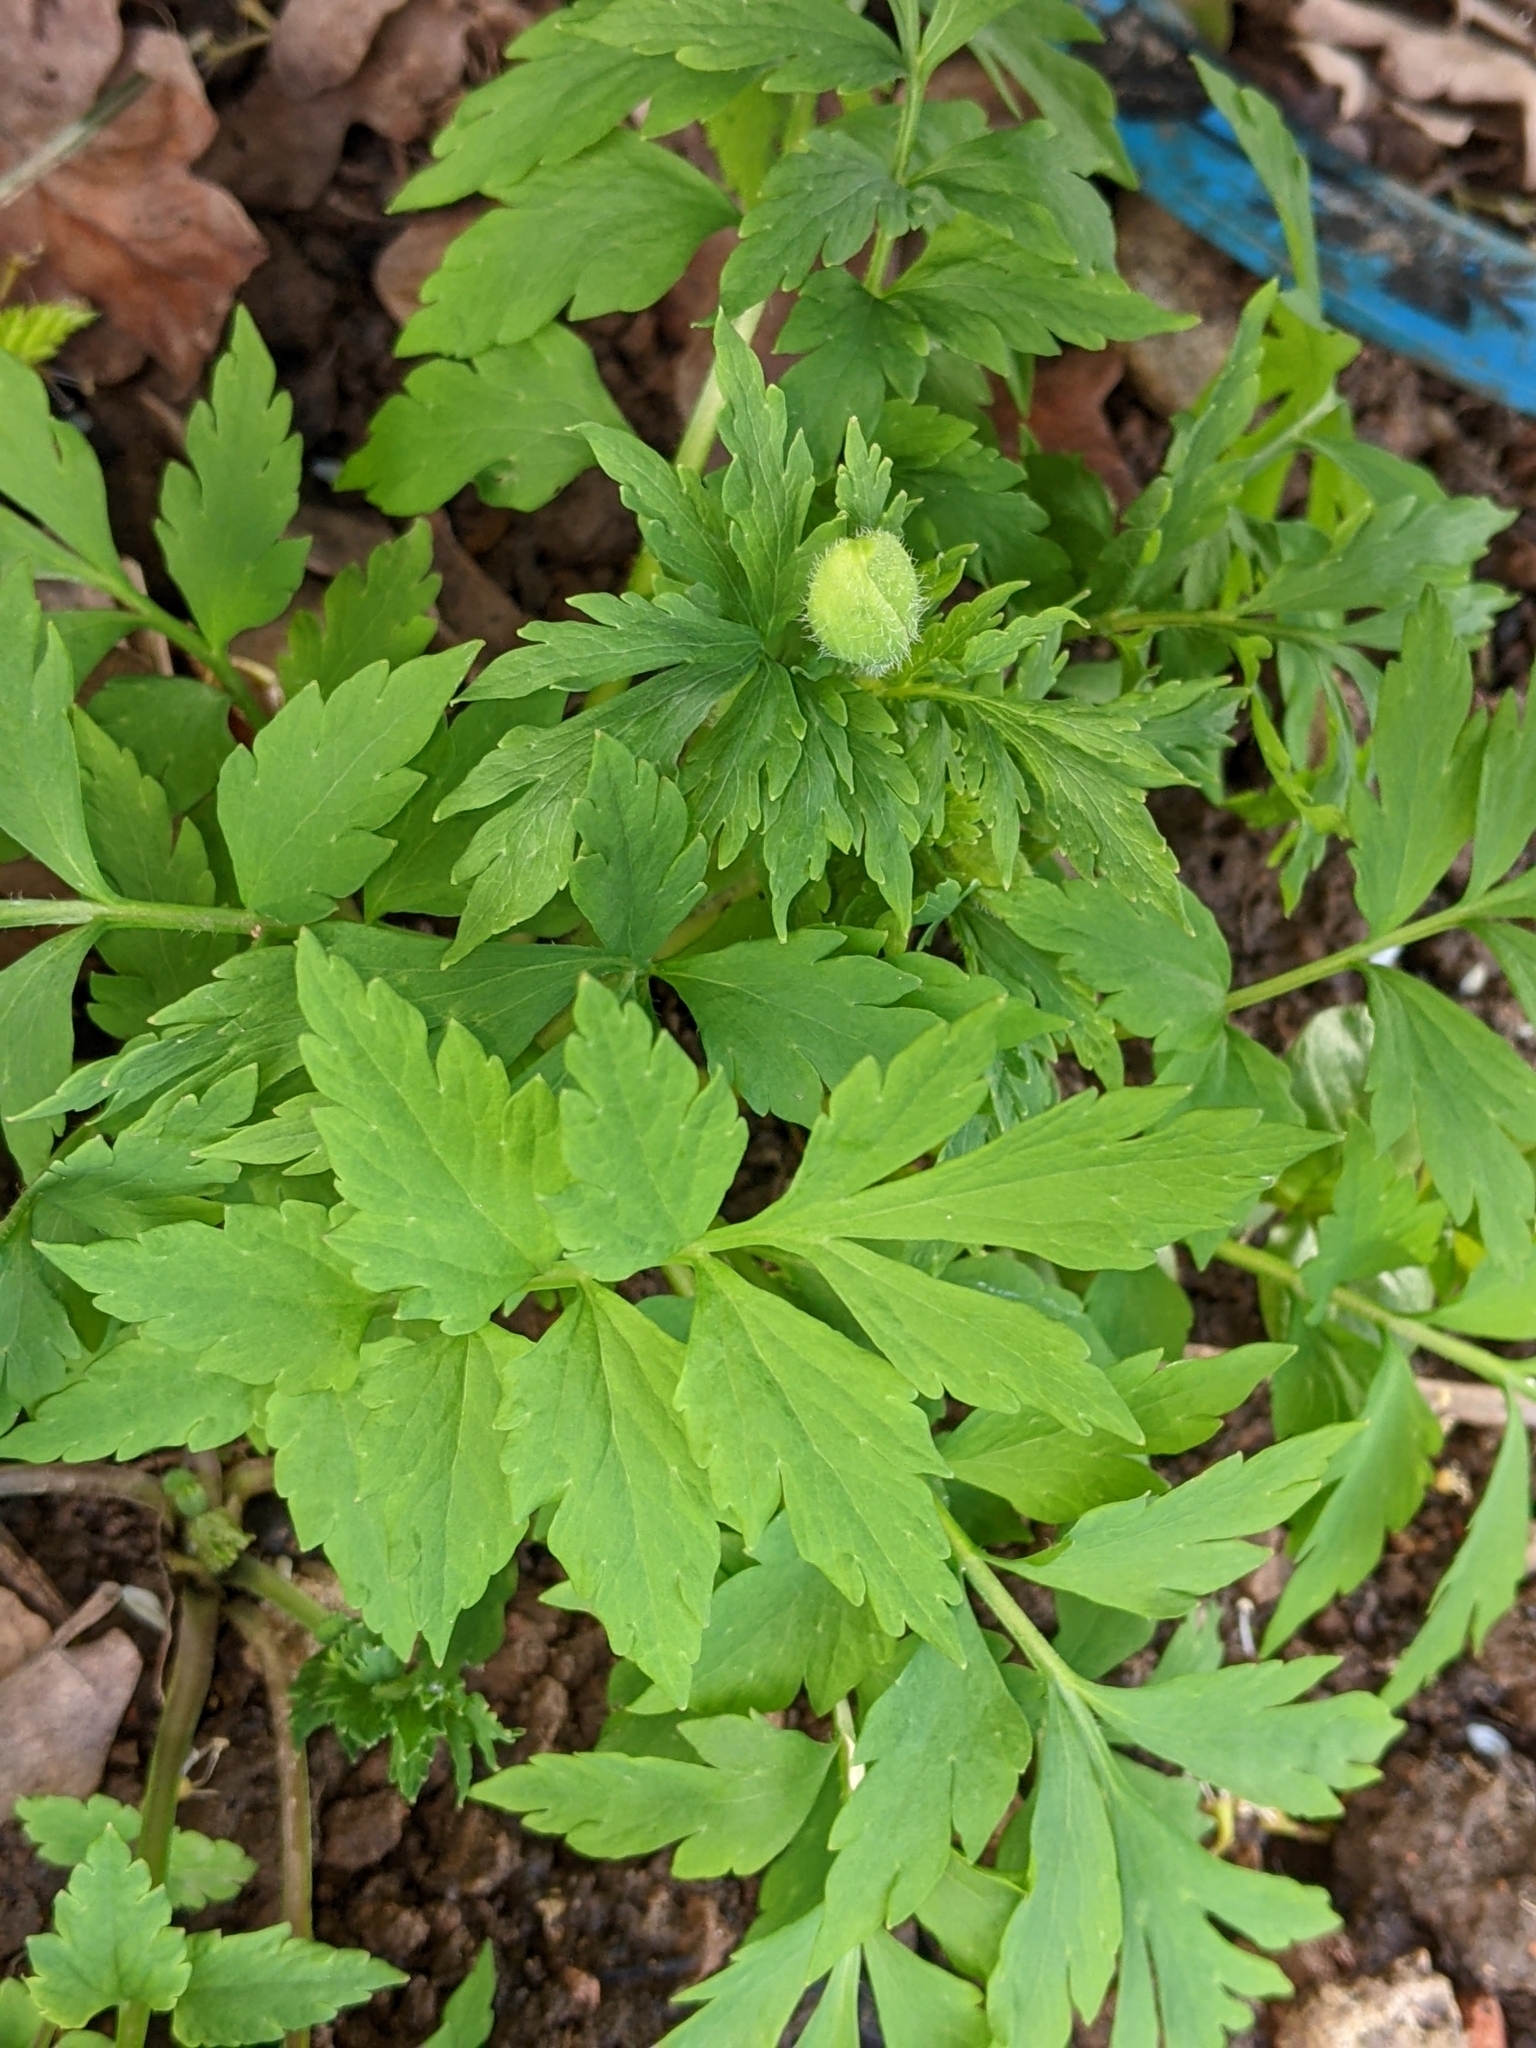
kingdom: Plantae
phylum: Tracheophyta
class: Magnoliopsida
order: Ranunculales
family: Papaveraceae
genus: Papaver
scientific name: Papaver cambricum
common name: Poppy
